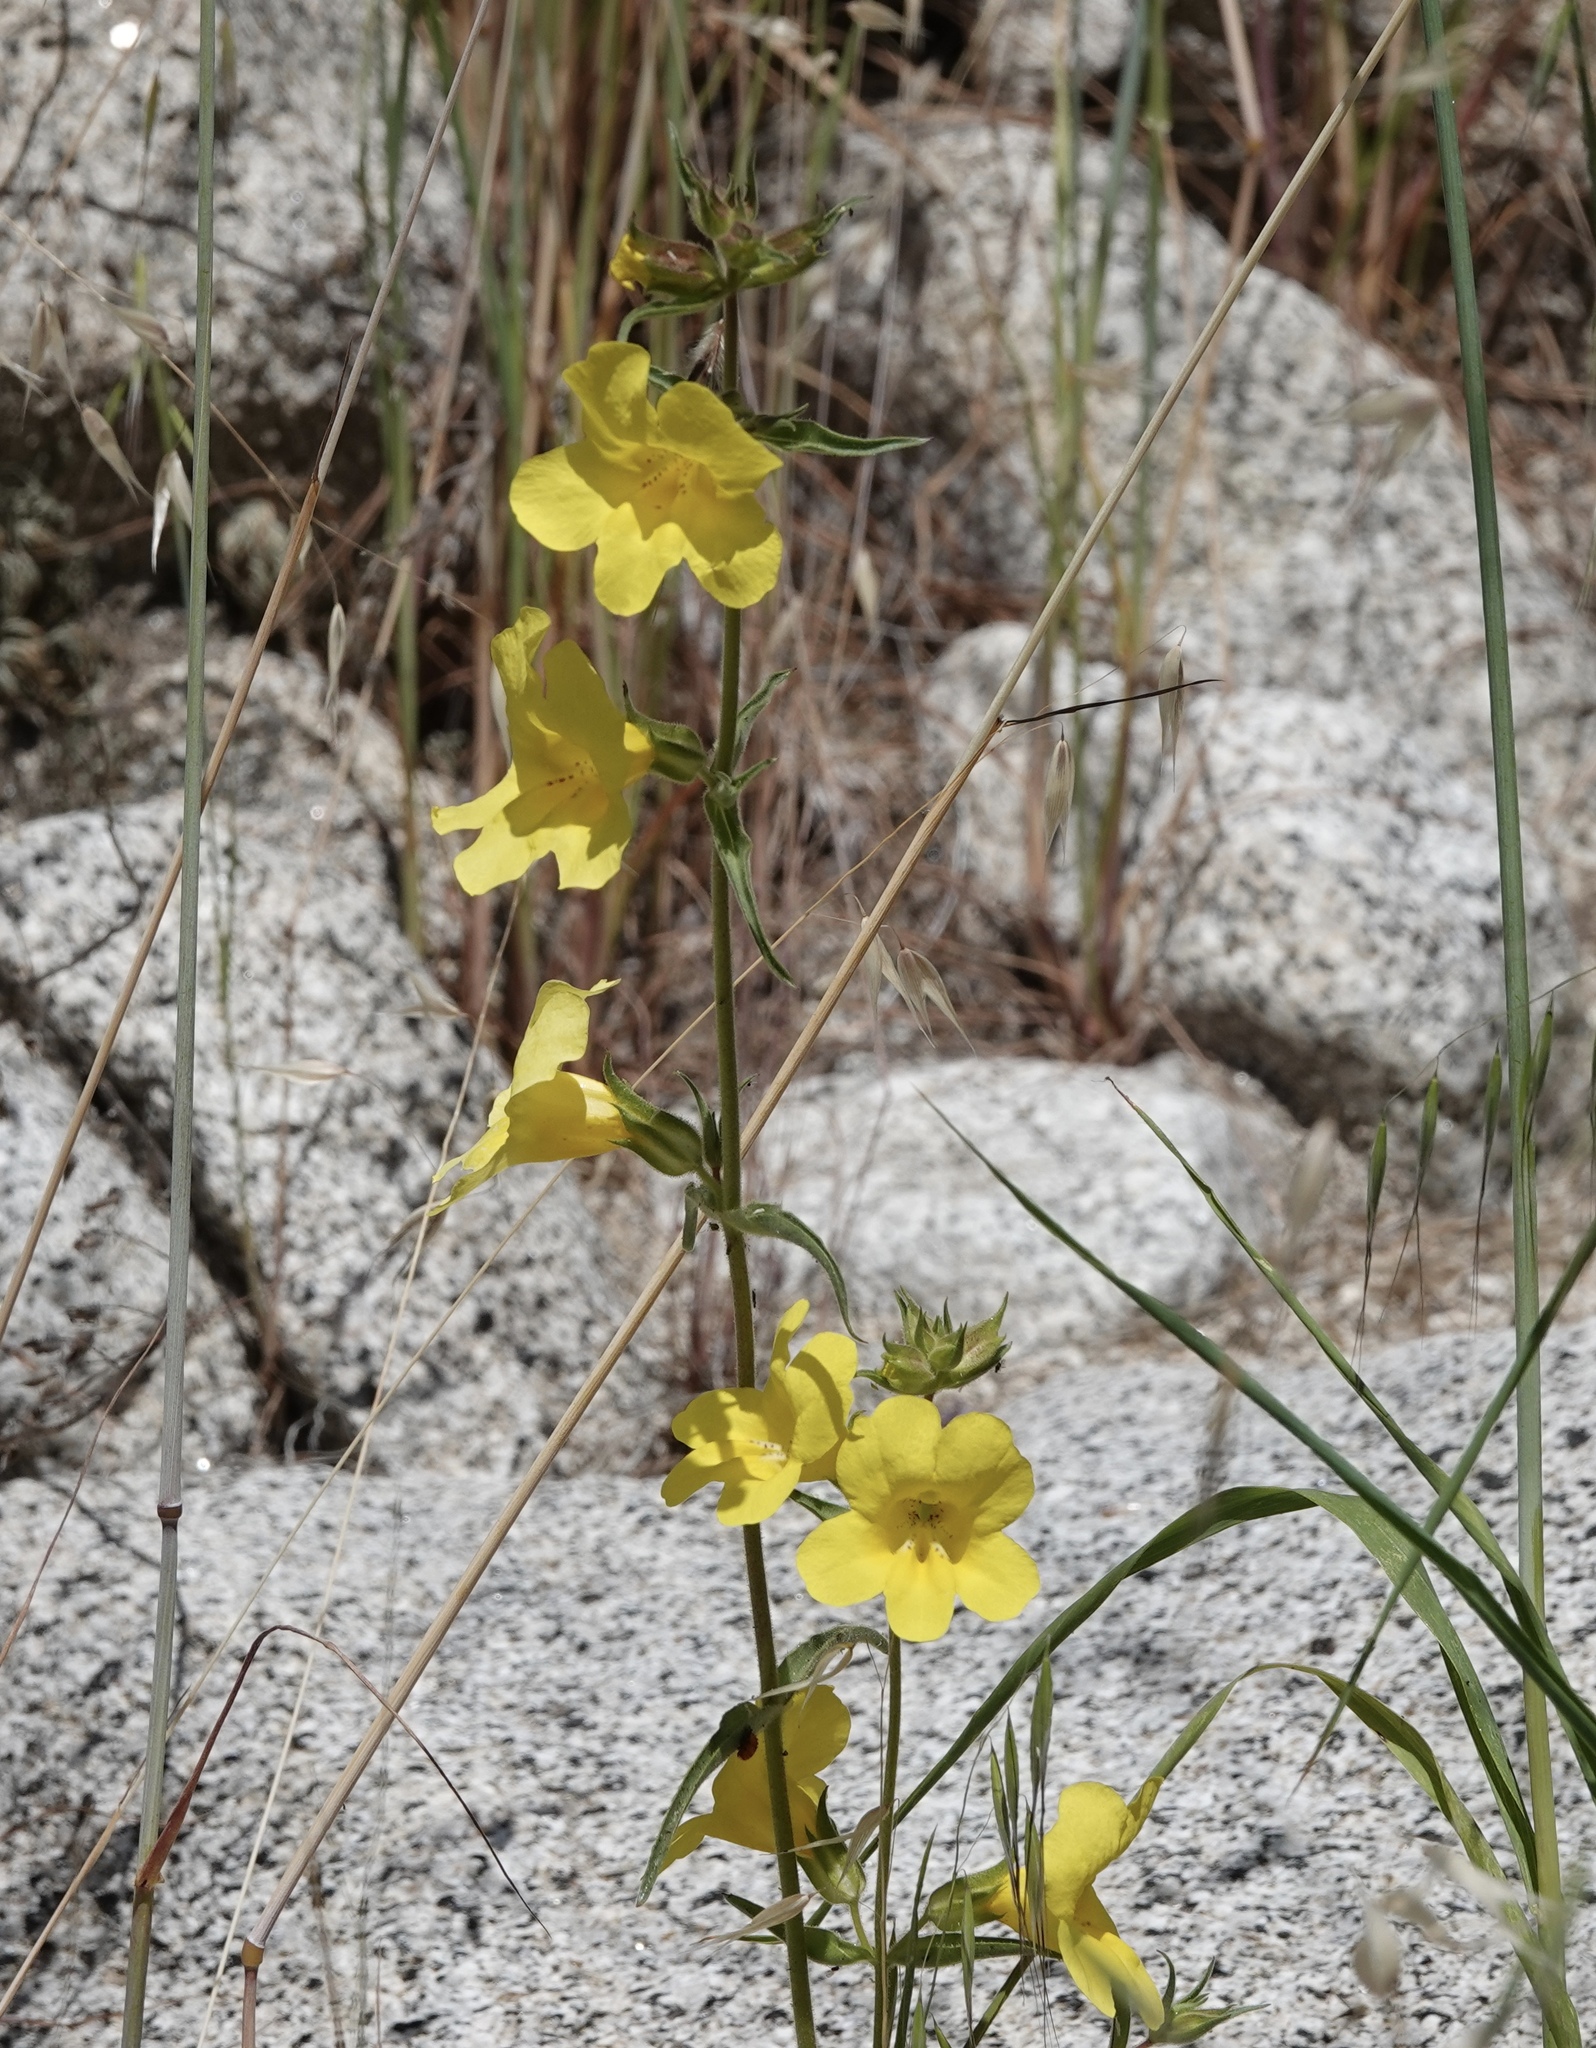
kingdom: Plantae
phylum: Tracheophyta
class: Magnoliopsida
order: Lamiales
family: Phrymaceae
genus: Diplacus
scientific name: Diplacus brevipes
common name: Wide-throat yellow monkey-flower
